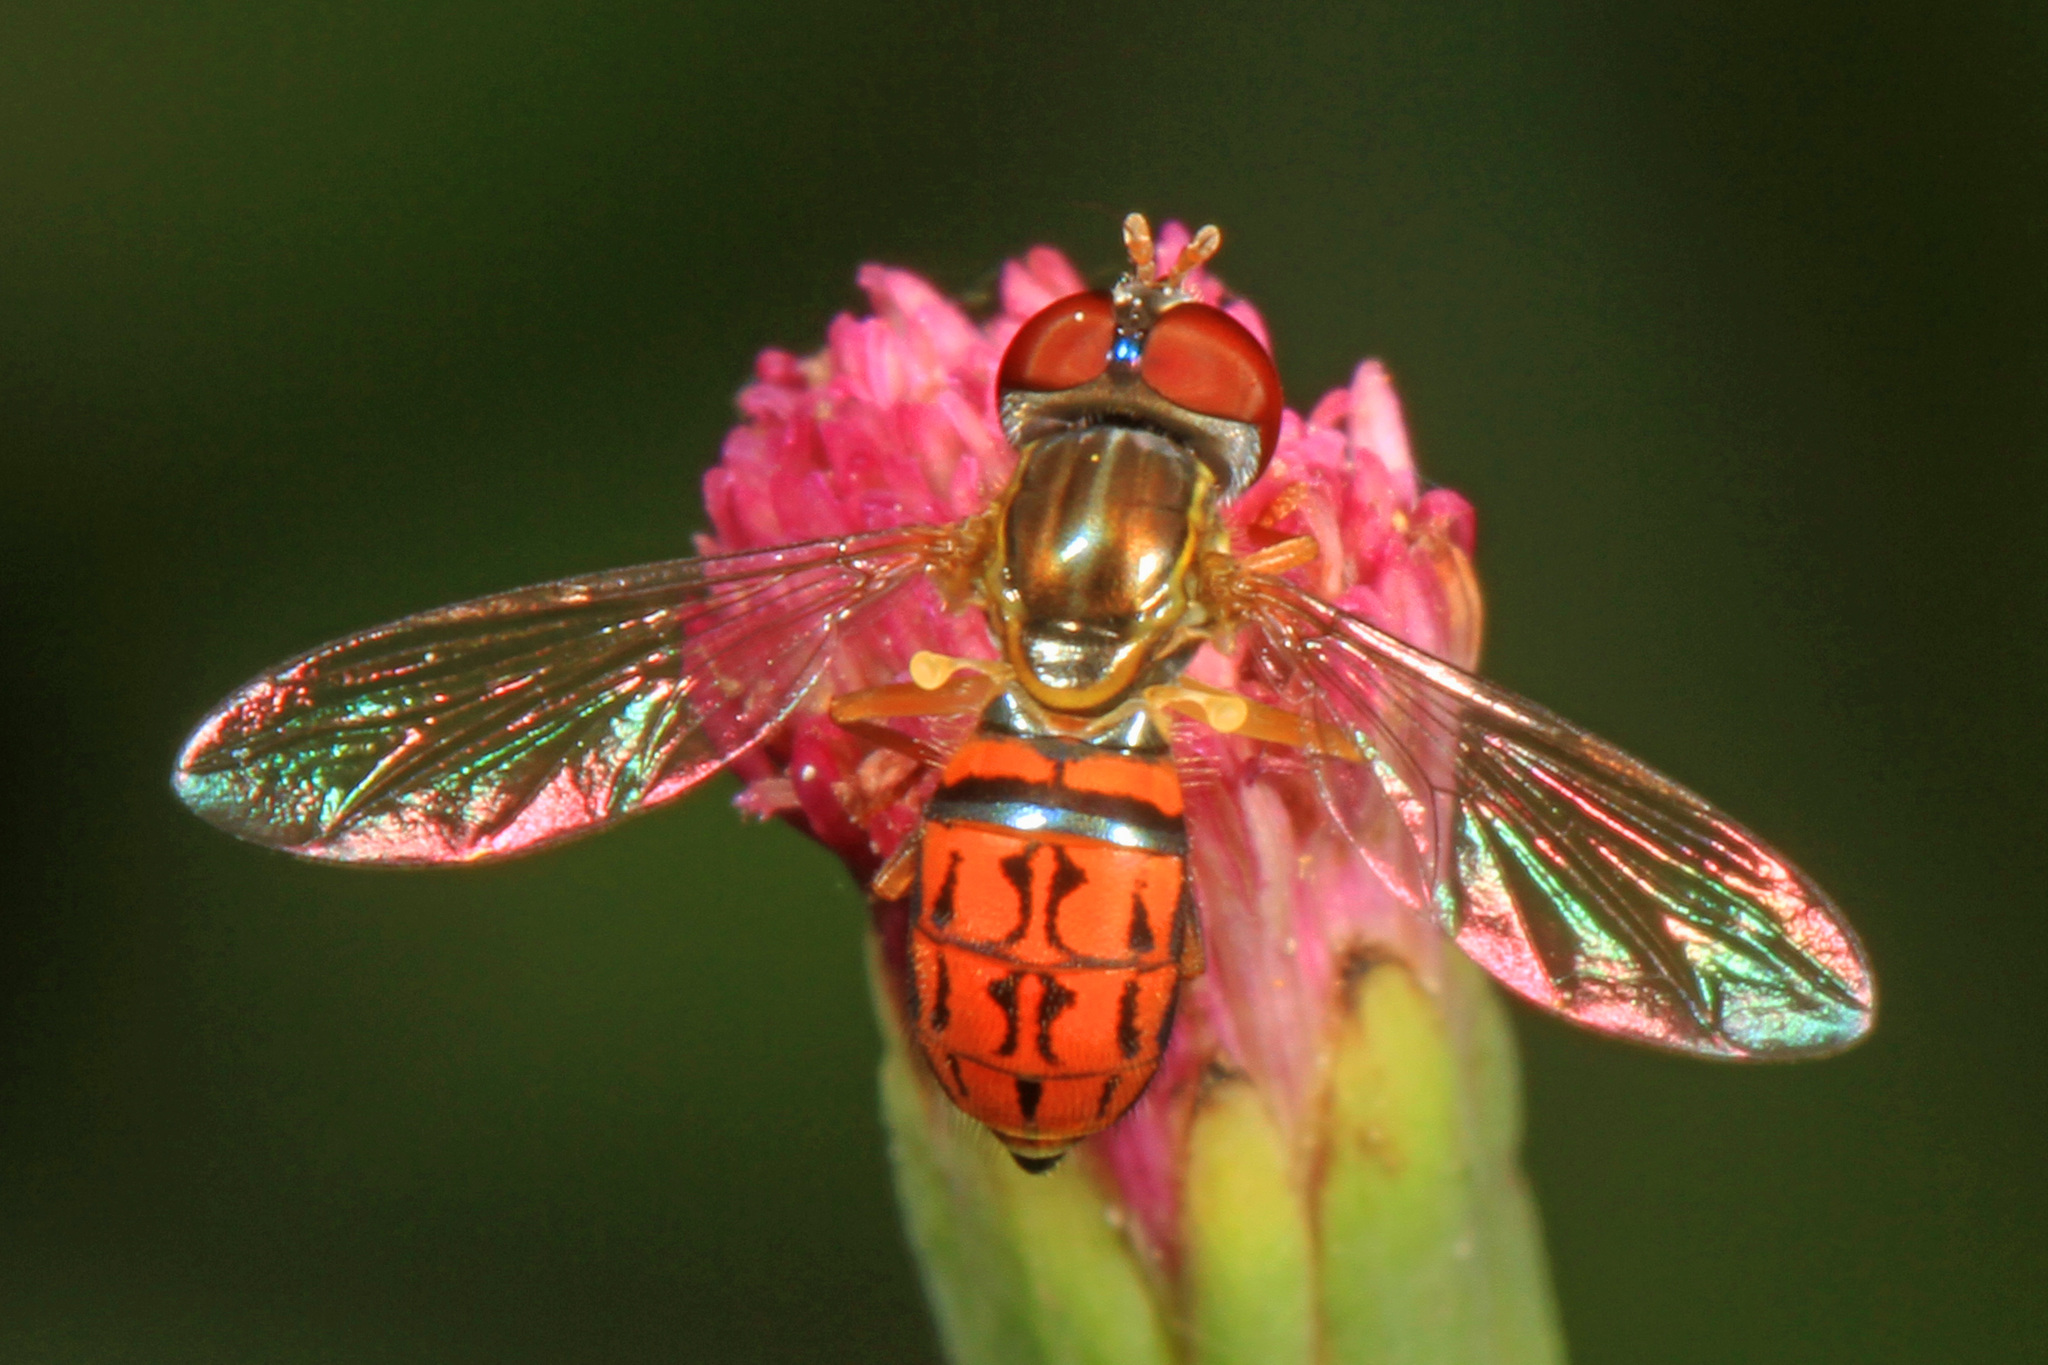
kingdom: Animalia
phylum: Arthropoda
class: Insecta
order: Diptera
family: Syrphidae
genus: Toxomerus
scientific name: Toxomerus boscii
